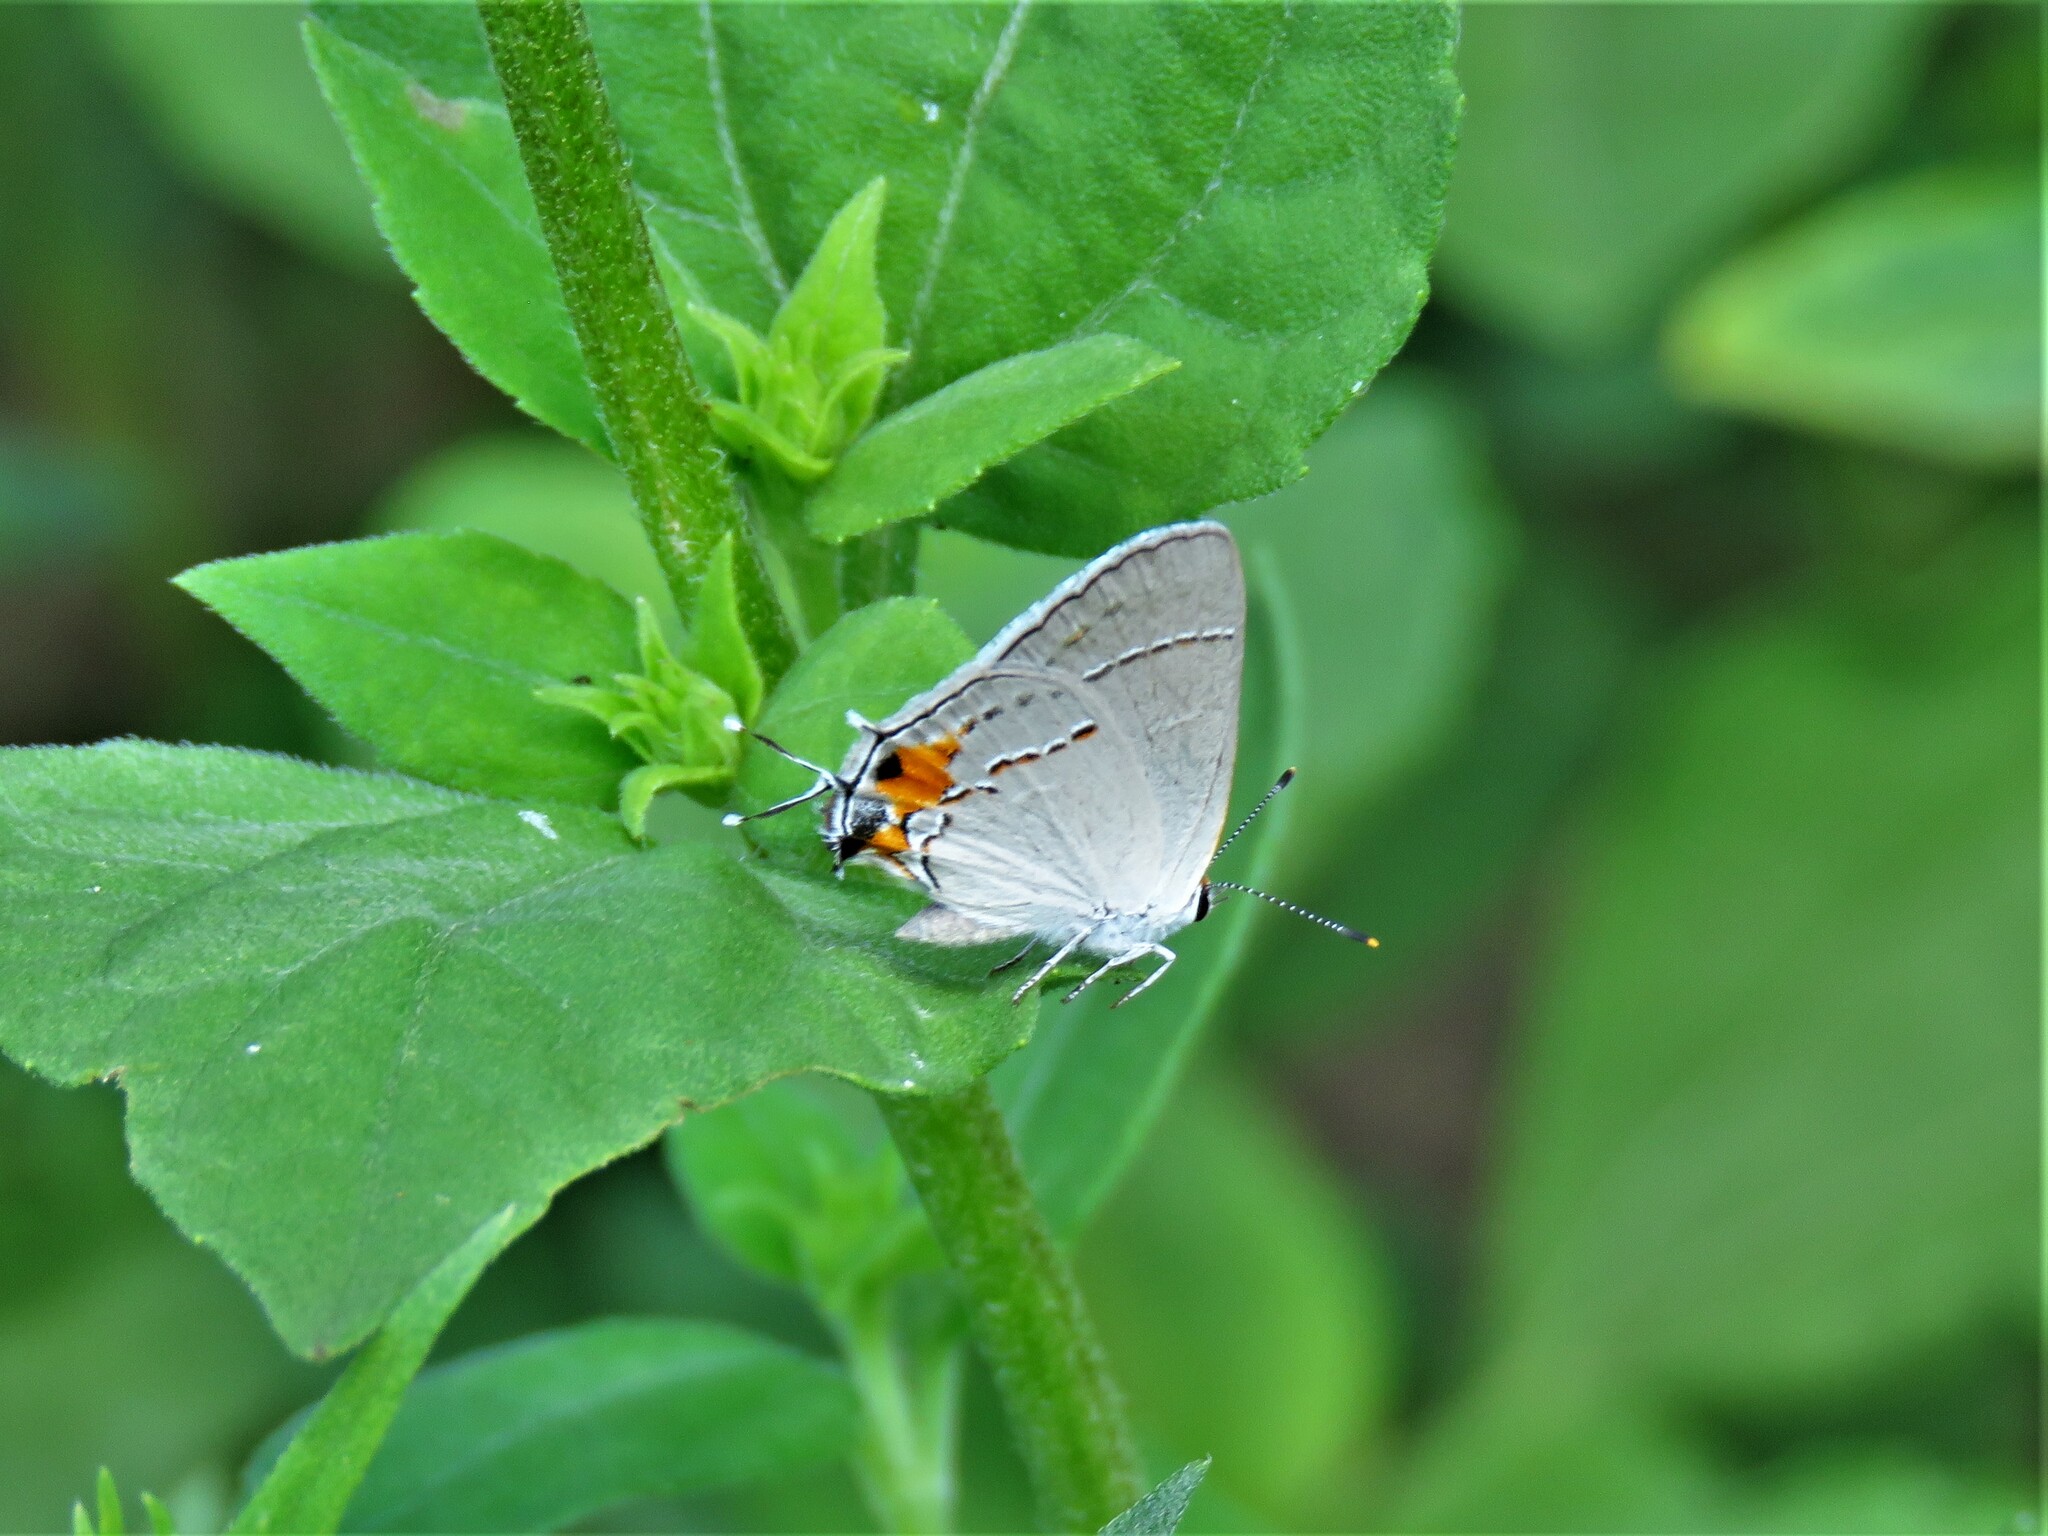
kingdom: Animalia
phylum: Arthropoda
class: Insecta
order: Lepidoptera
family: Lycaenidae
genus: Strymon
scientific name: Strymon melinus
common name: Gray hairstreak
